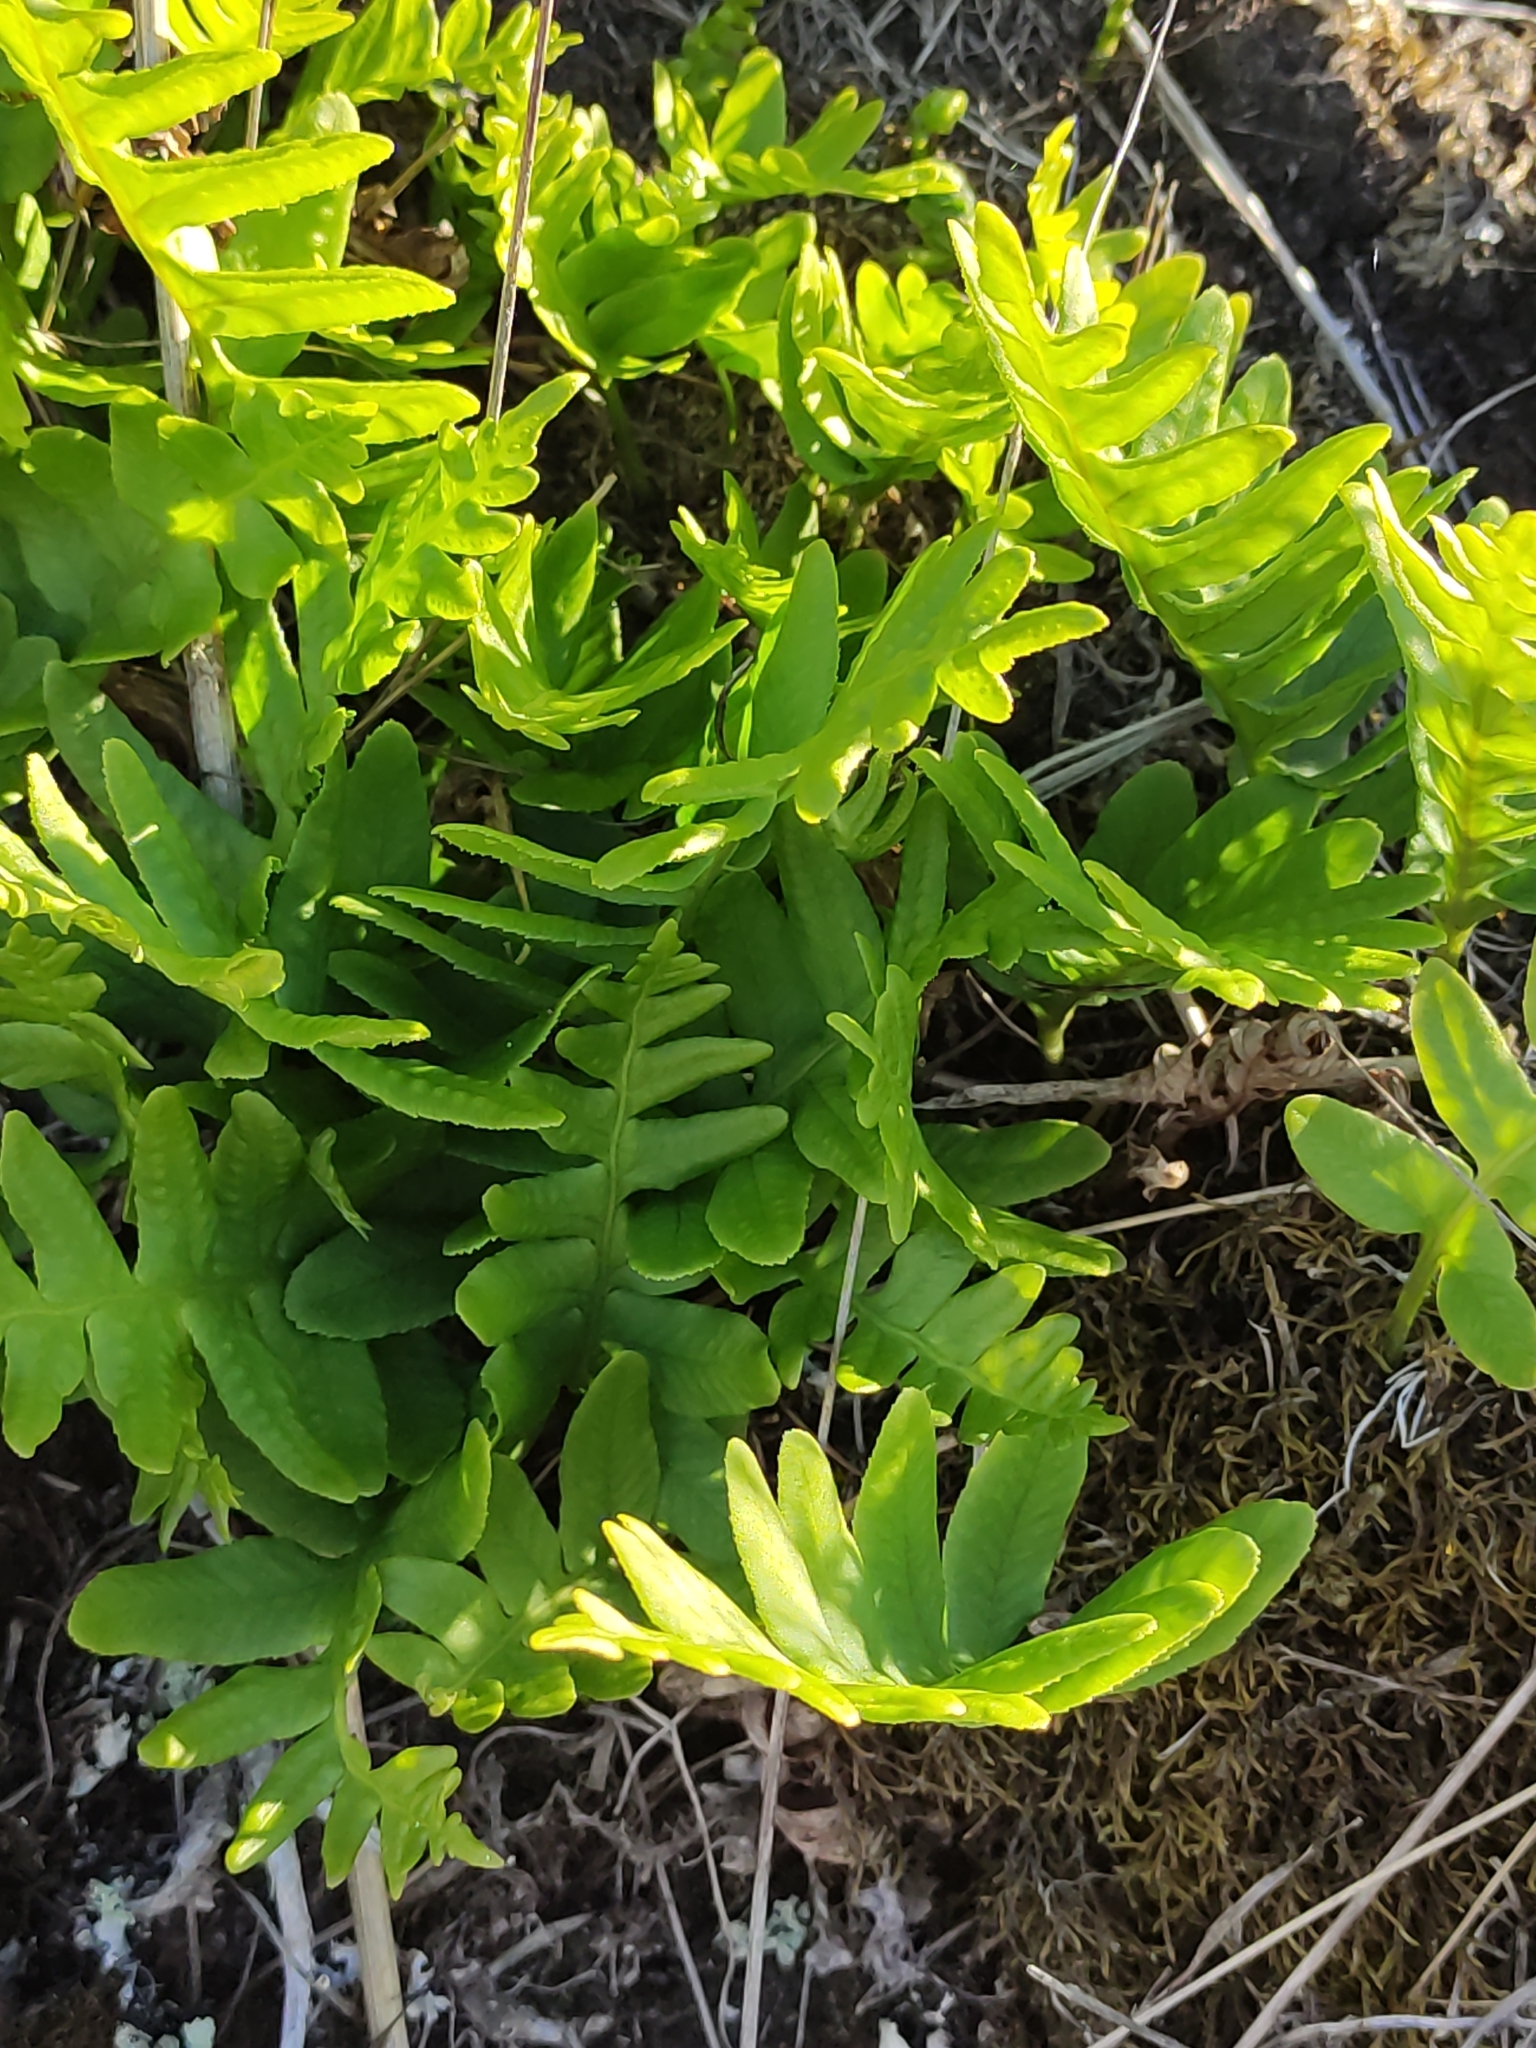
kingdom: Plantae
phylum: Tracheophyta
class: Polypodiopsida
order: Polypodiales
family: Polypodiaceae
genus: Polypodium
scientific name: Polypodium vulgare
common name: Common polypody
